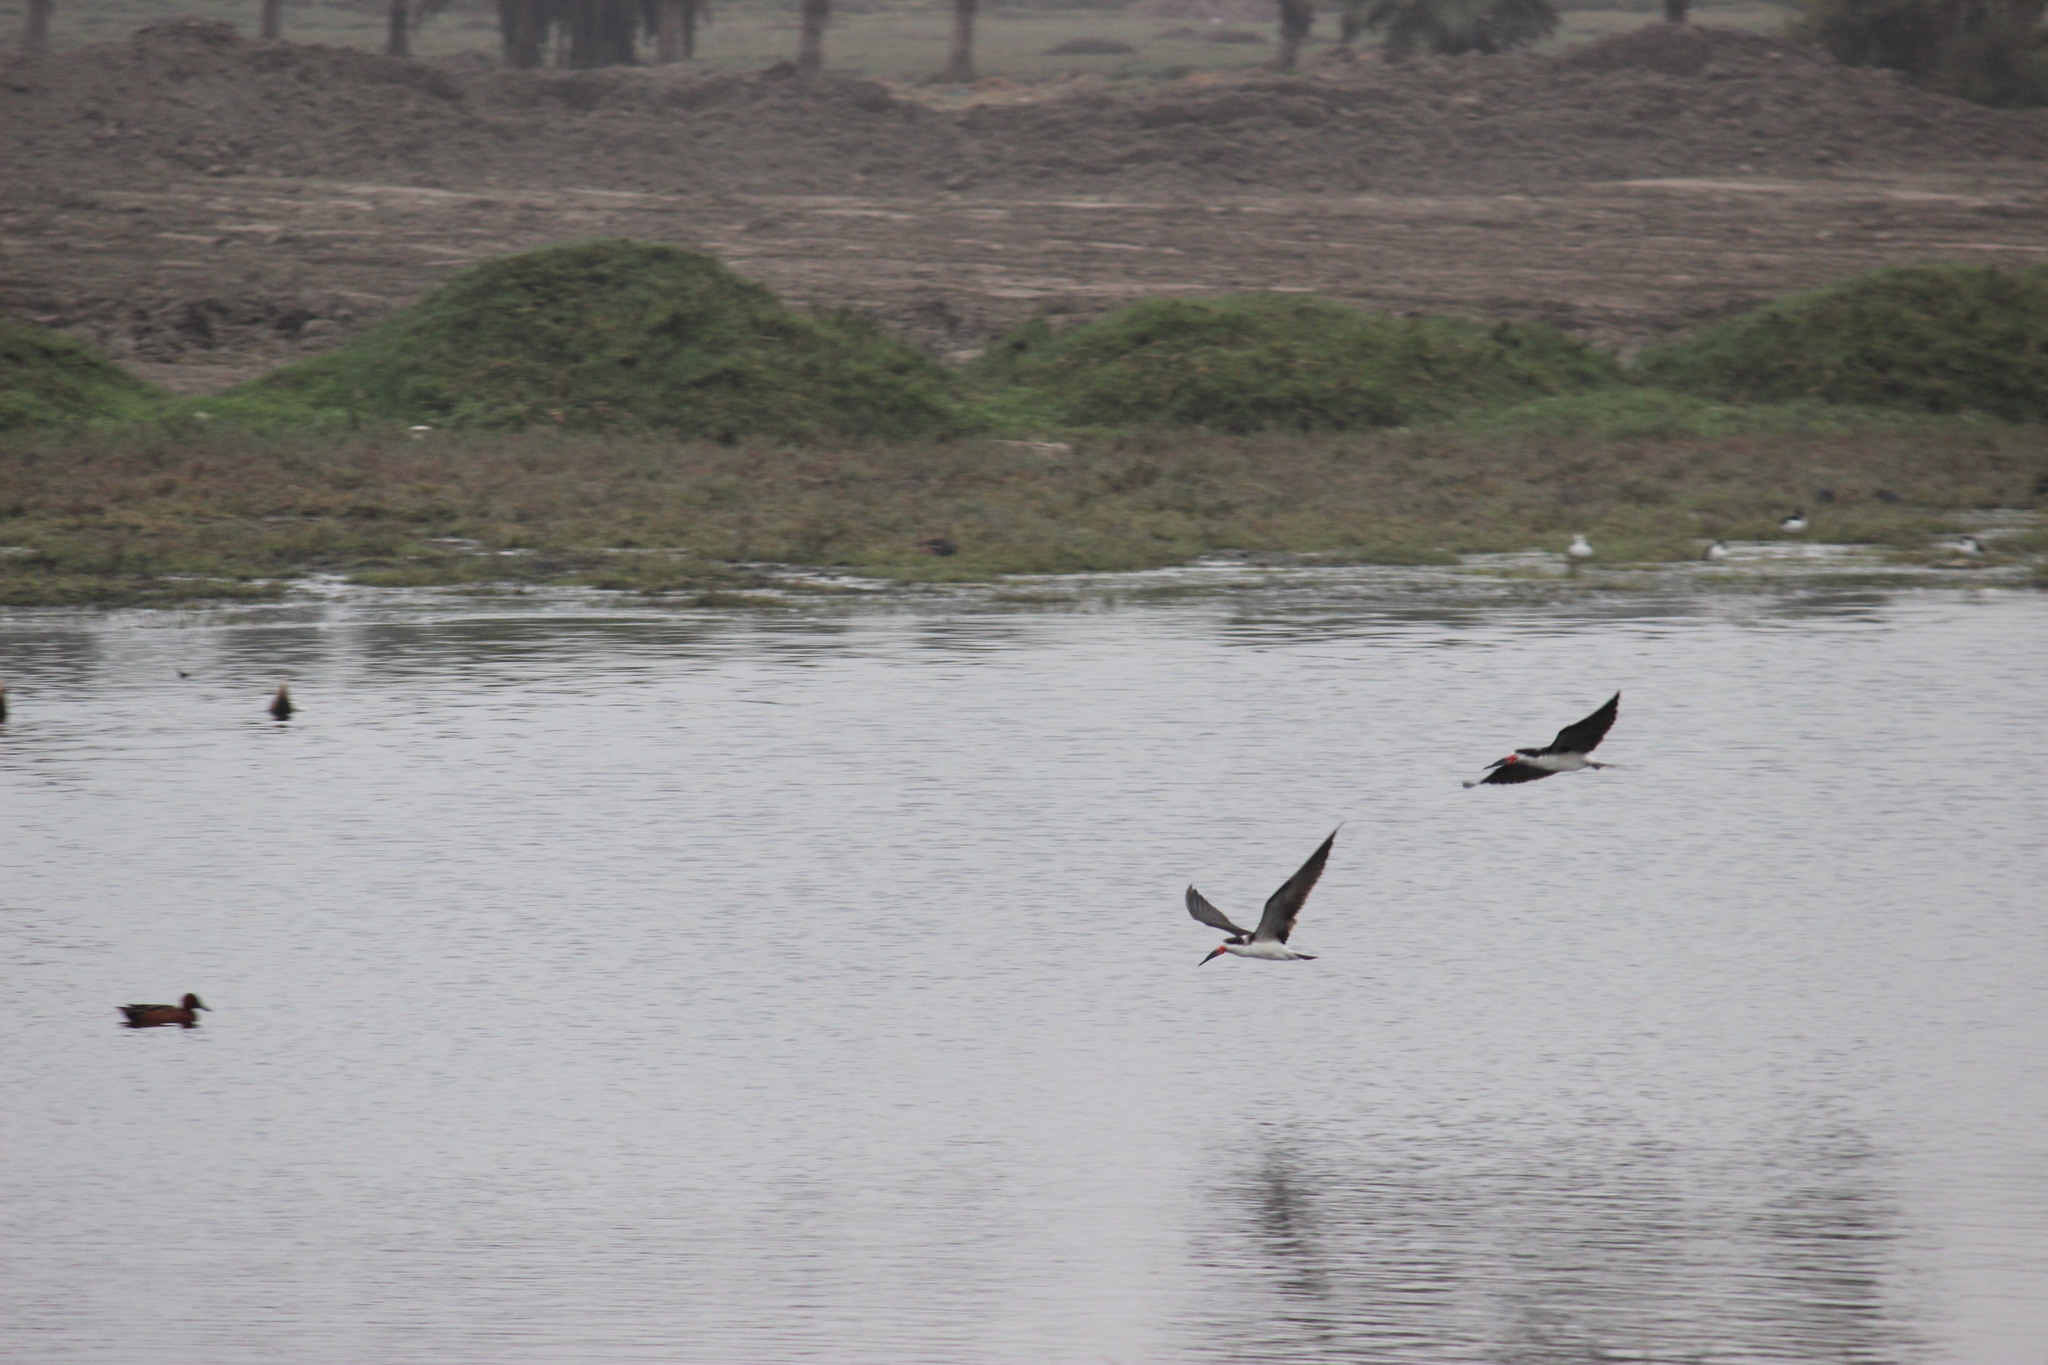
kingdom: Animalia
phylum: Chordata
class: Aves
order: Charadriiformes
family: Laridae
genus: Rynchops
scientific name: Rynchops niger
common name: Black skimmer
